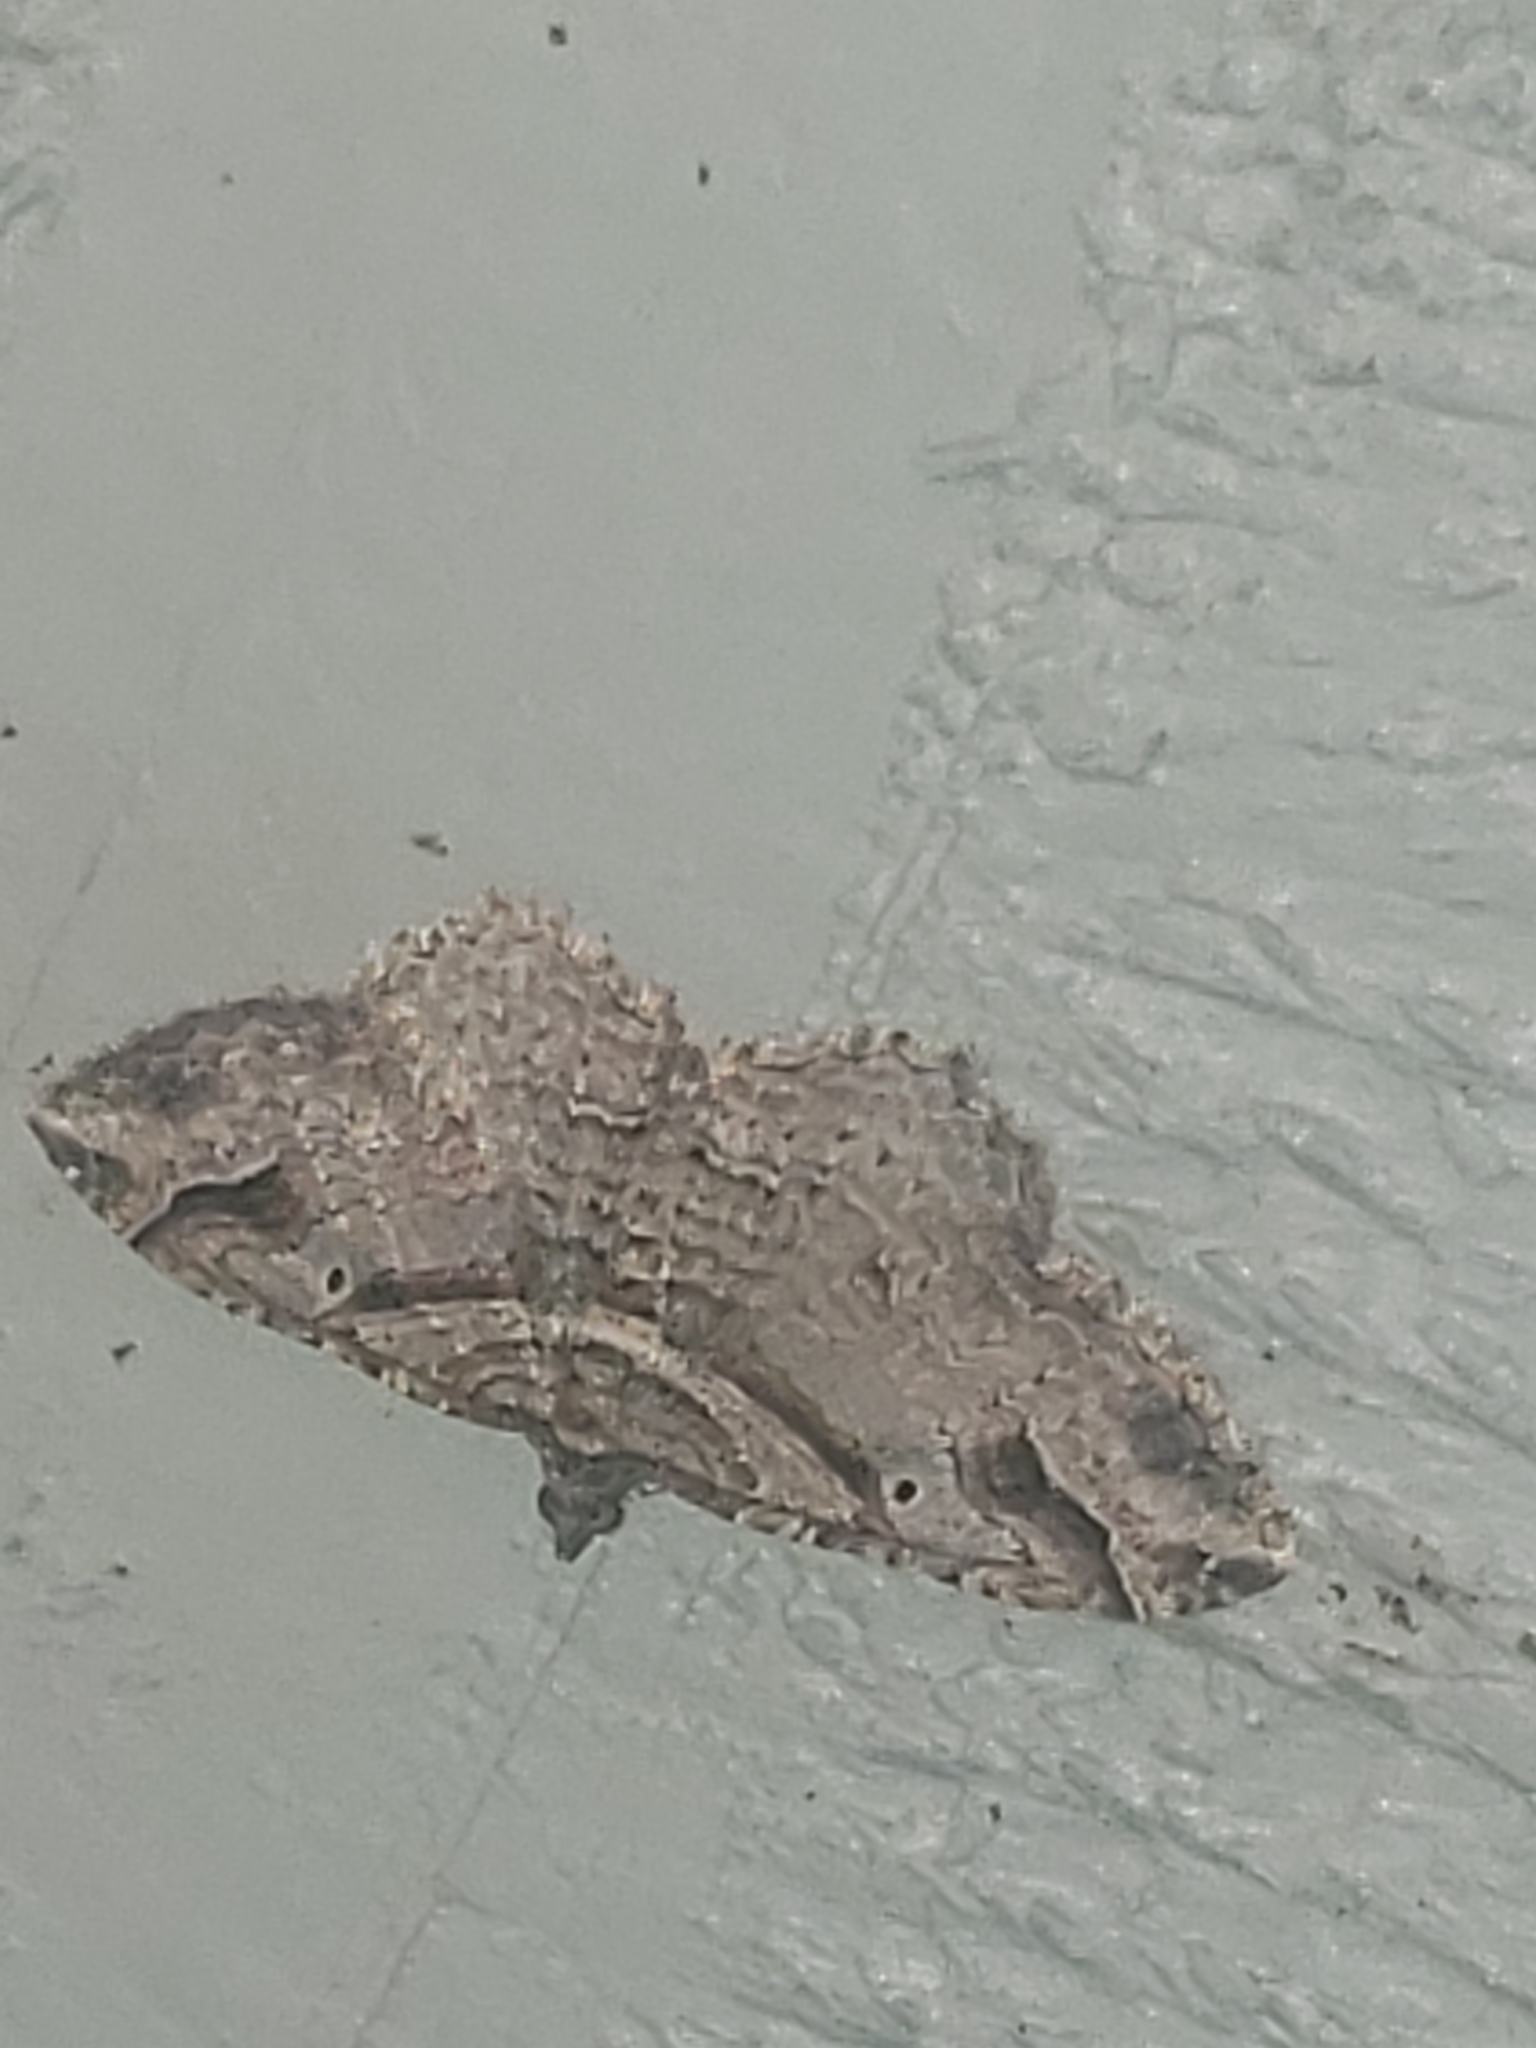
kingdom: Animalia
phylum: Arthropoda
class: Insecta
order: Lepidoptera
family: Geometridae
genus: Costaconvexa
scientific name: Costaconvexa centrostrigaria
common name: Bent-line carpet
